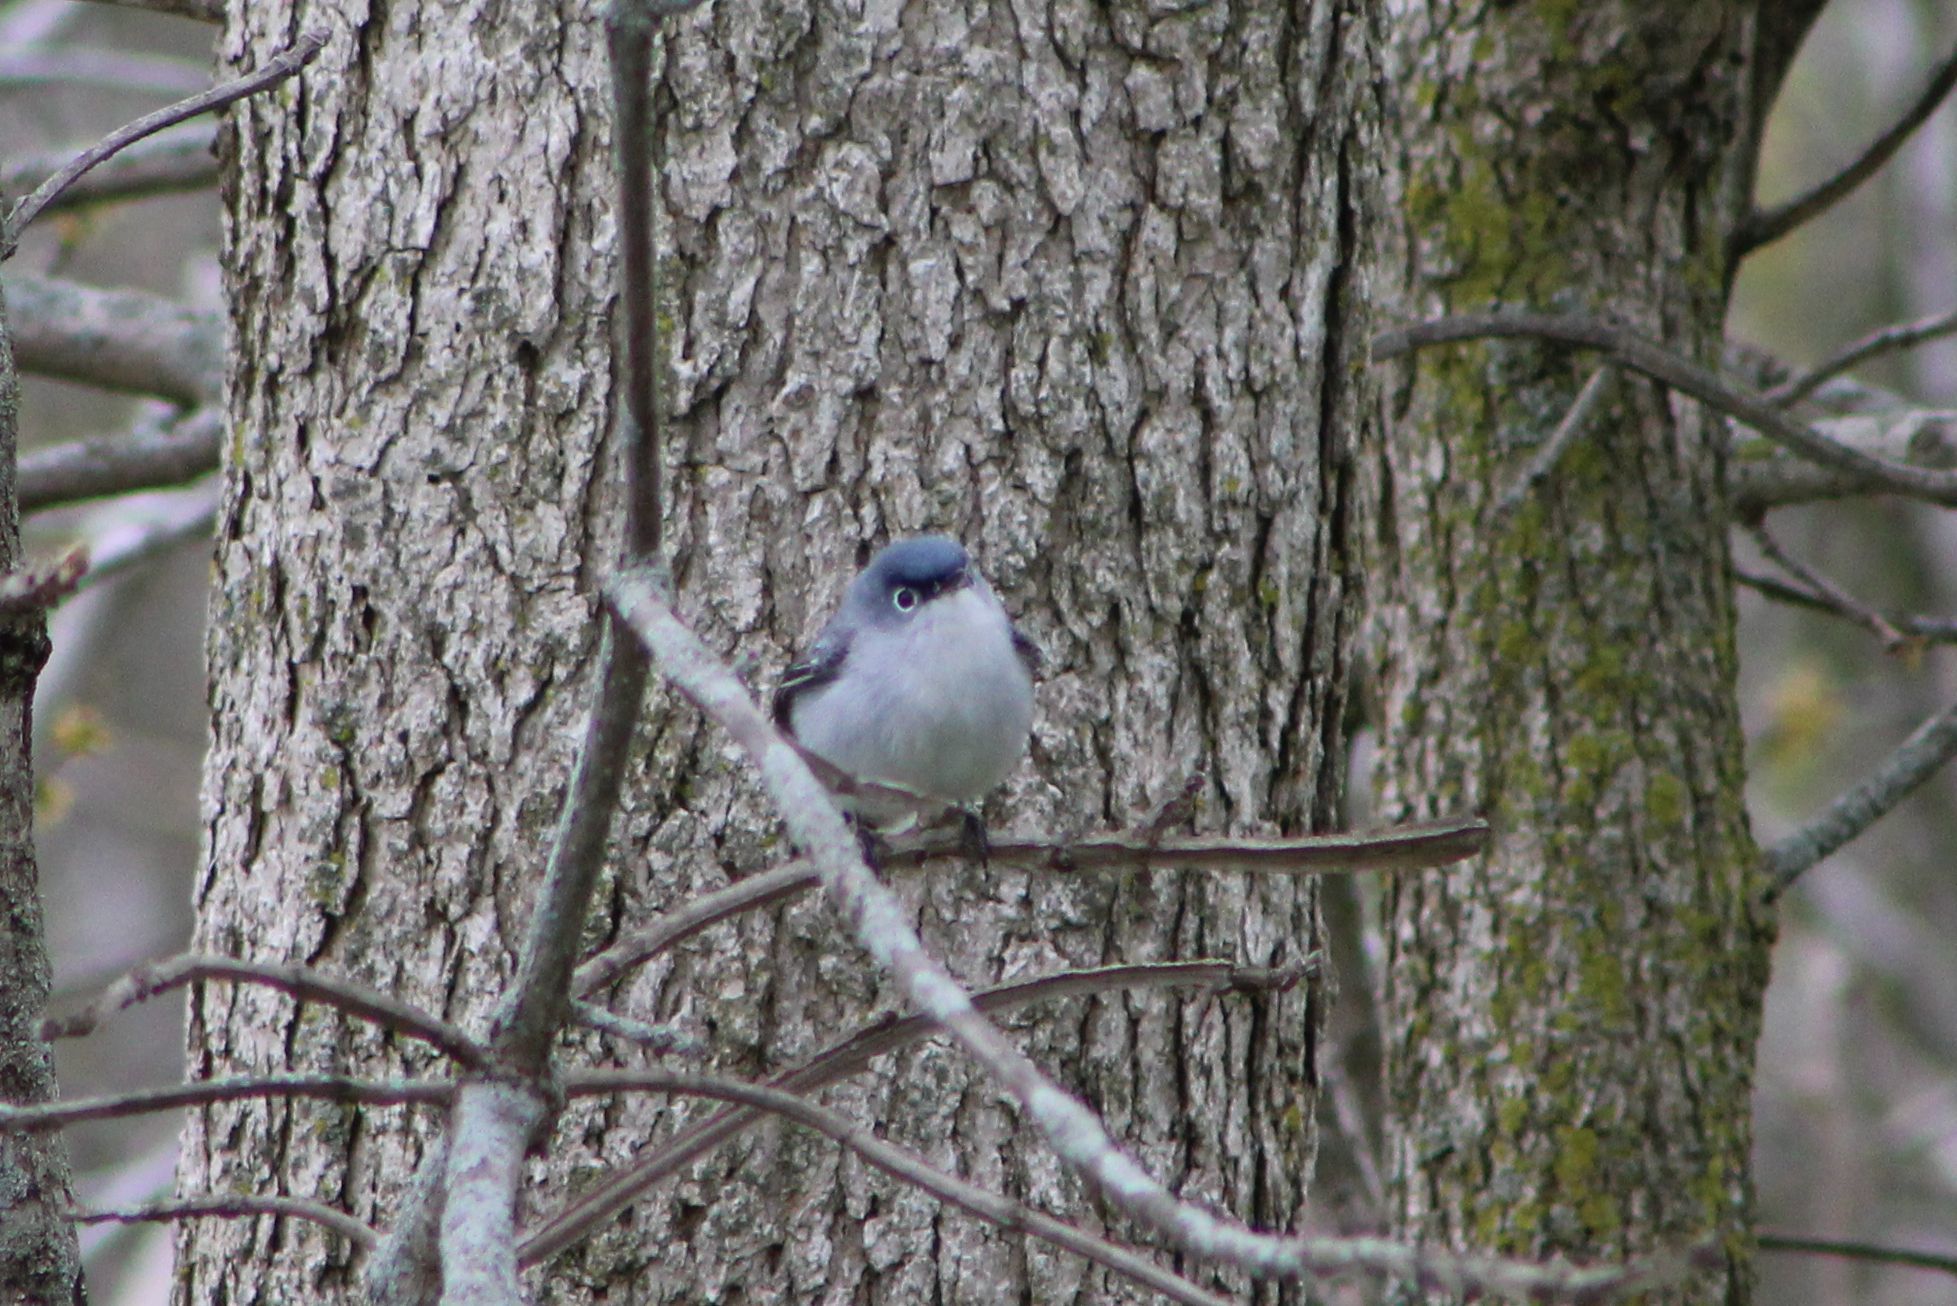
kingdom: Animalia
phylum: Chordata
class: Aves
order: Passeriformes
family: Polioptilidae
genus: Polioptila
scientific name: Polioptila caerulea
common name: Blue-gray gnatcatcher
